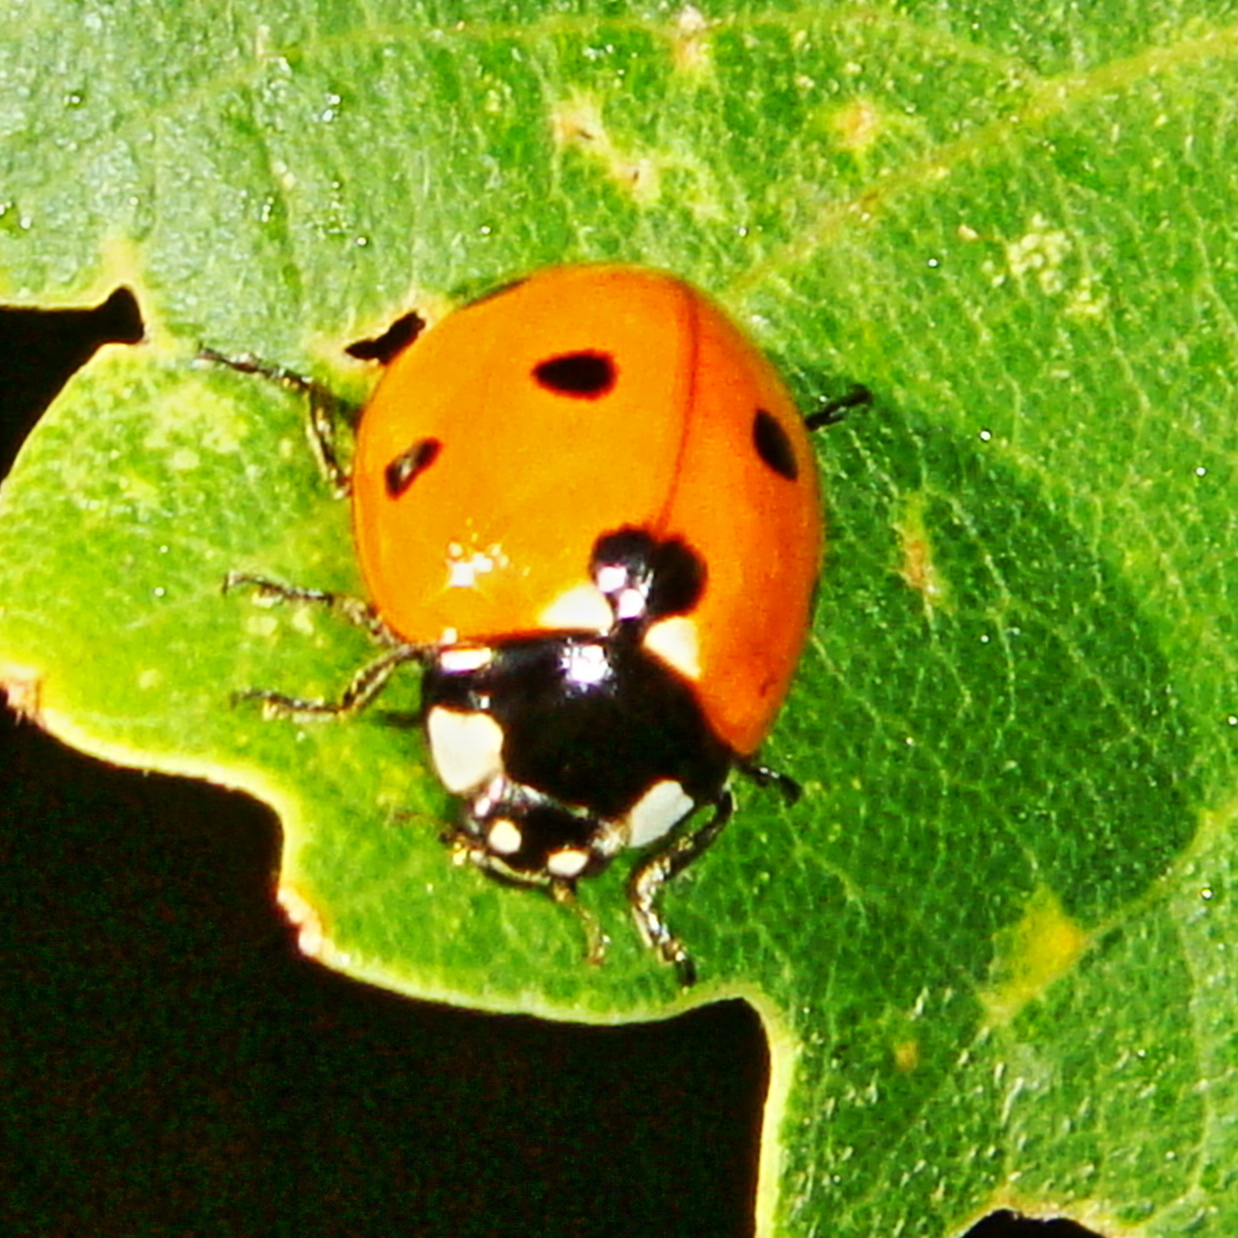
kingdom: Animalia
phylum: Arthropoda
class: Insecta
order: Coleoptera
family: Coccinellidae
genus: Coccinella
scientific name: Coccinella septempunctata
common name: Sevenspotted lady beetle
